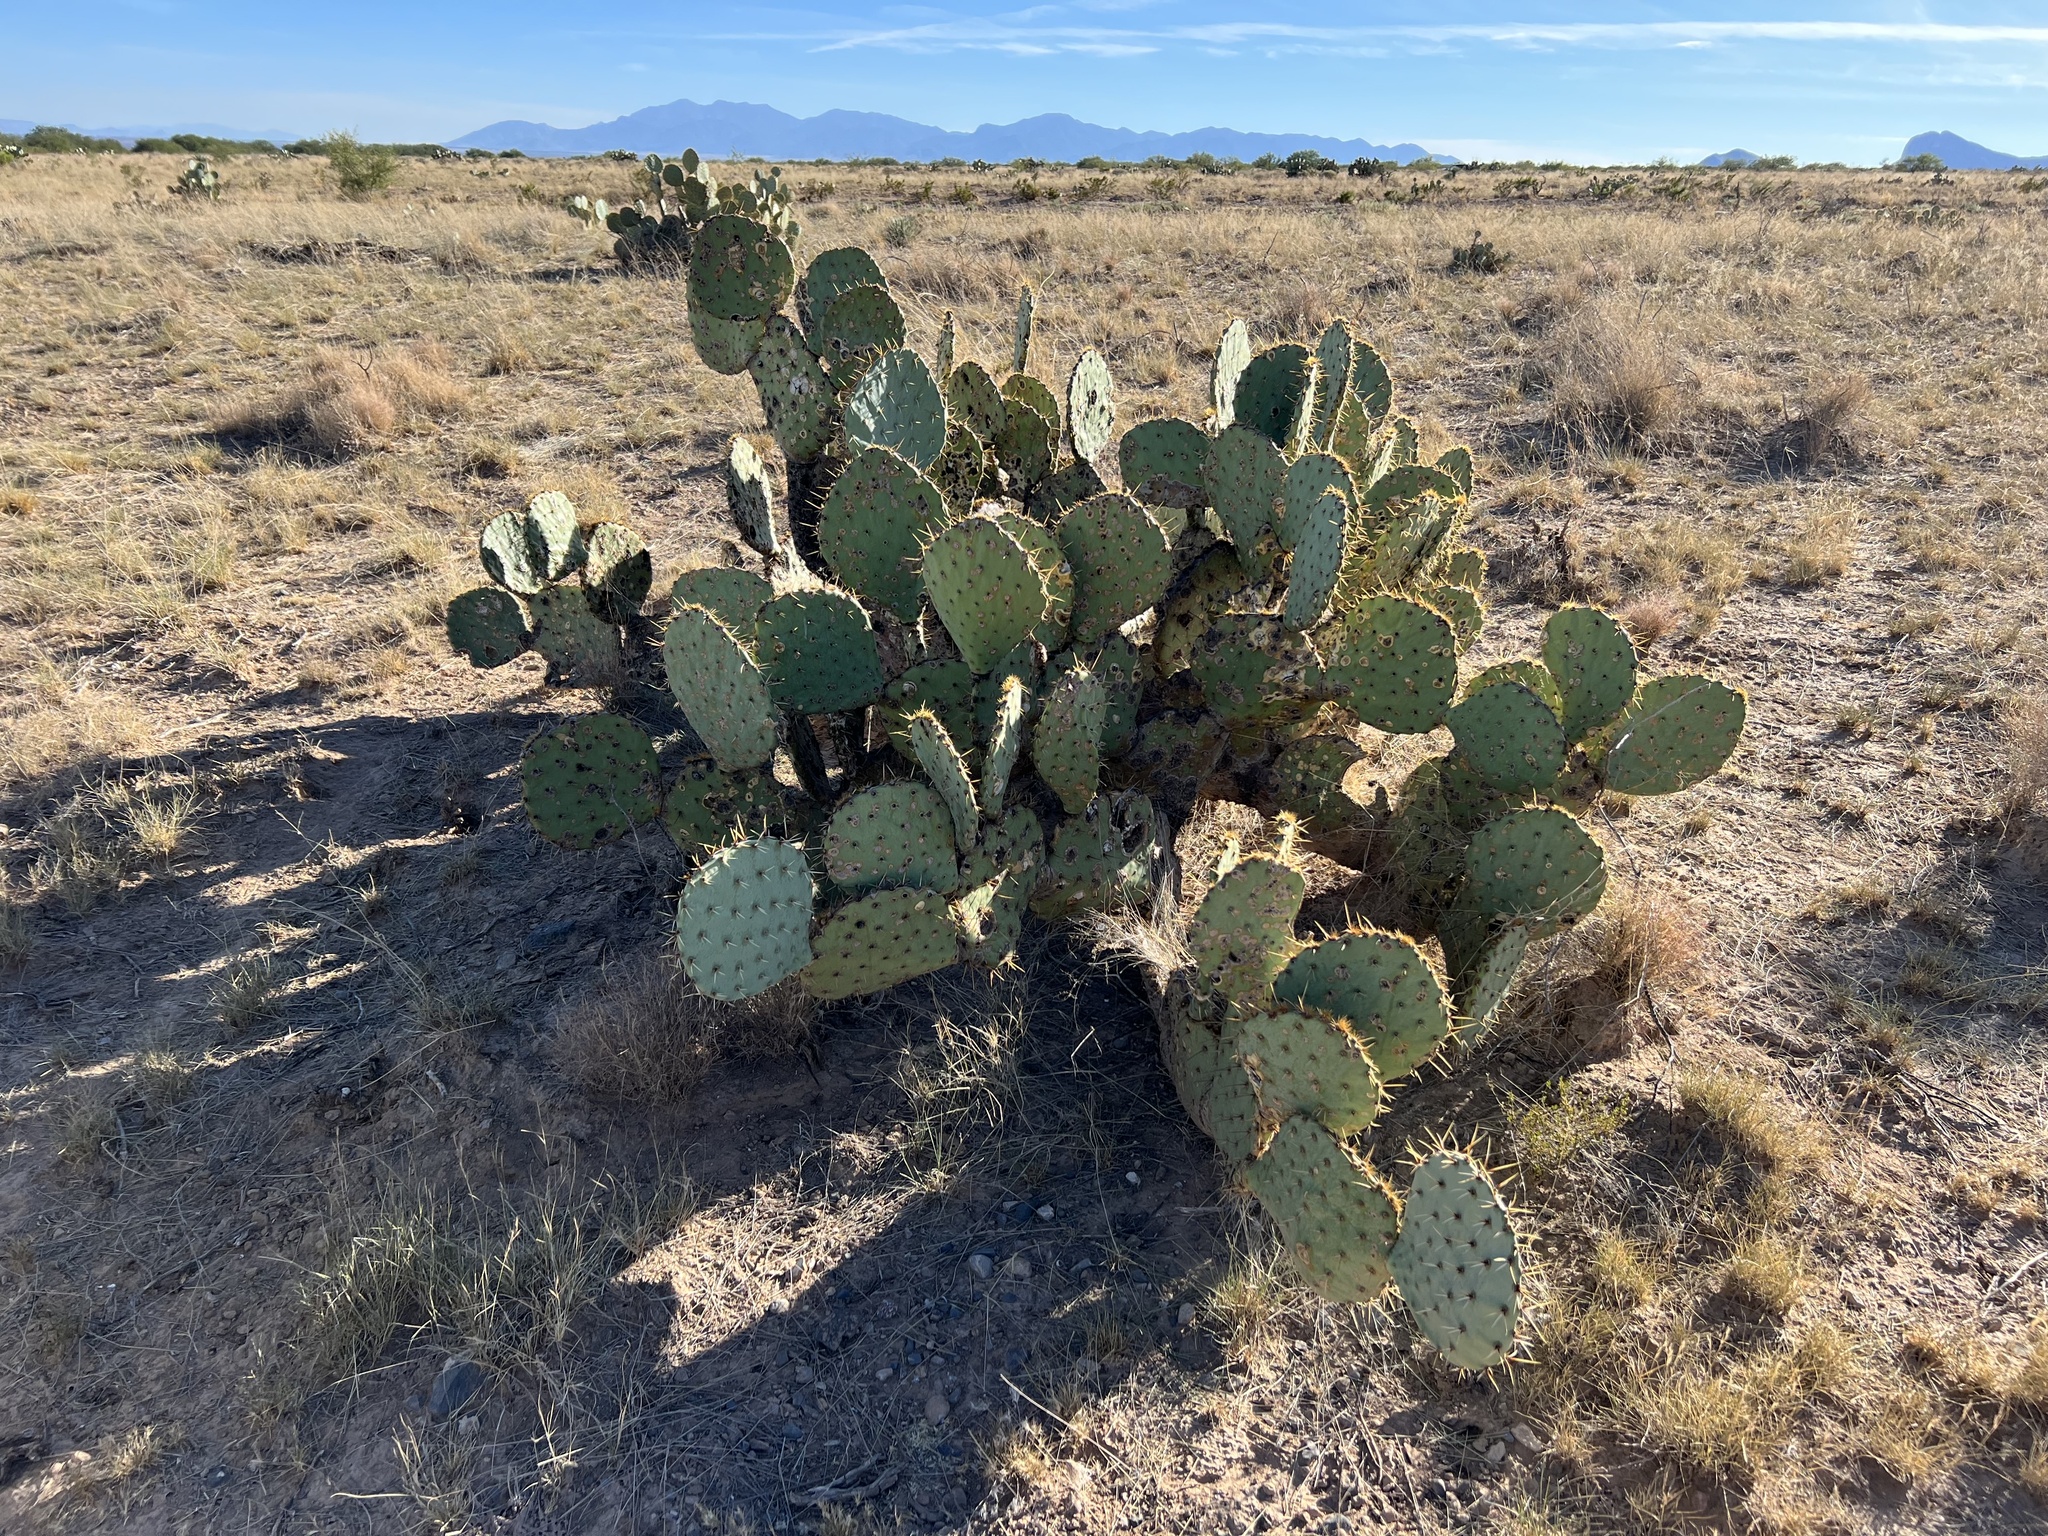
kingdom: Plantae
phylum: Tracheophyta
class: Magnoliopsida
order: Caryophyllales
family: Cactaceae
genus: Opuntia
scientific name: Opuntia engelmannii
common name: Cactus-apple
